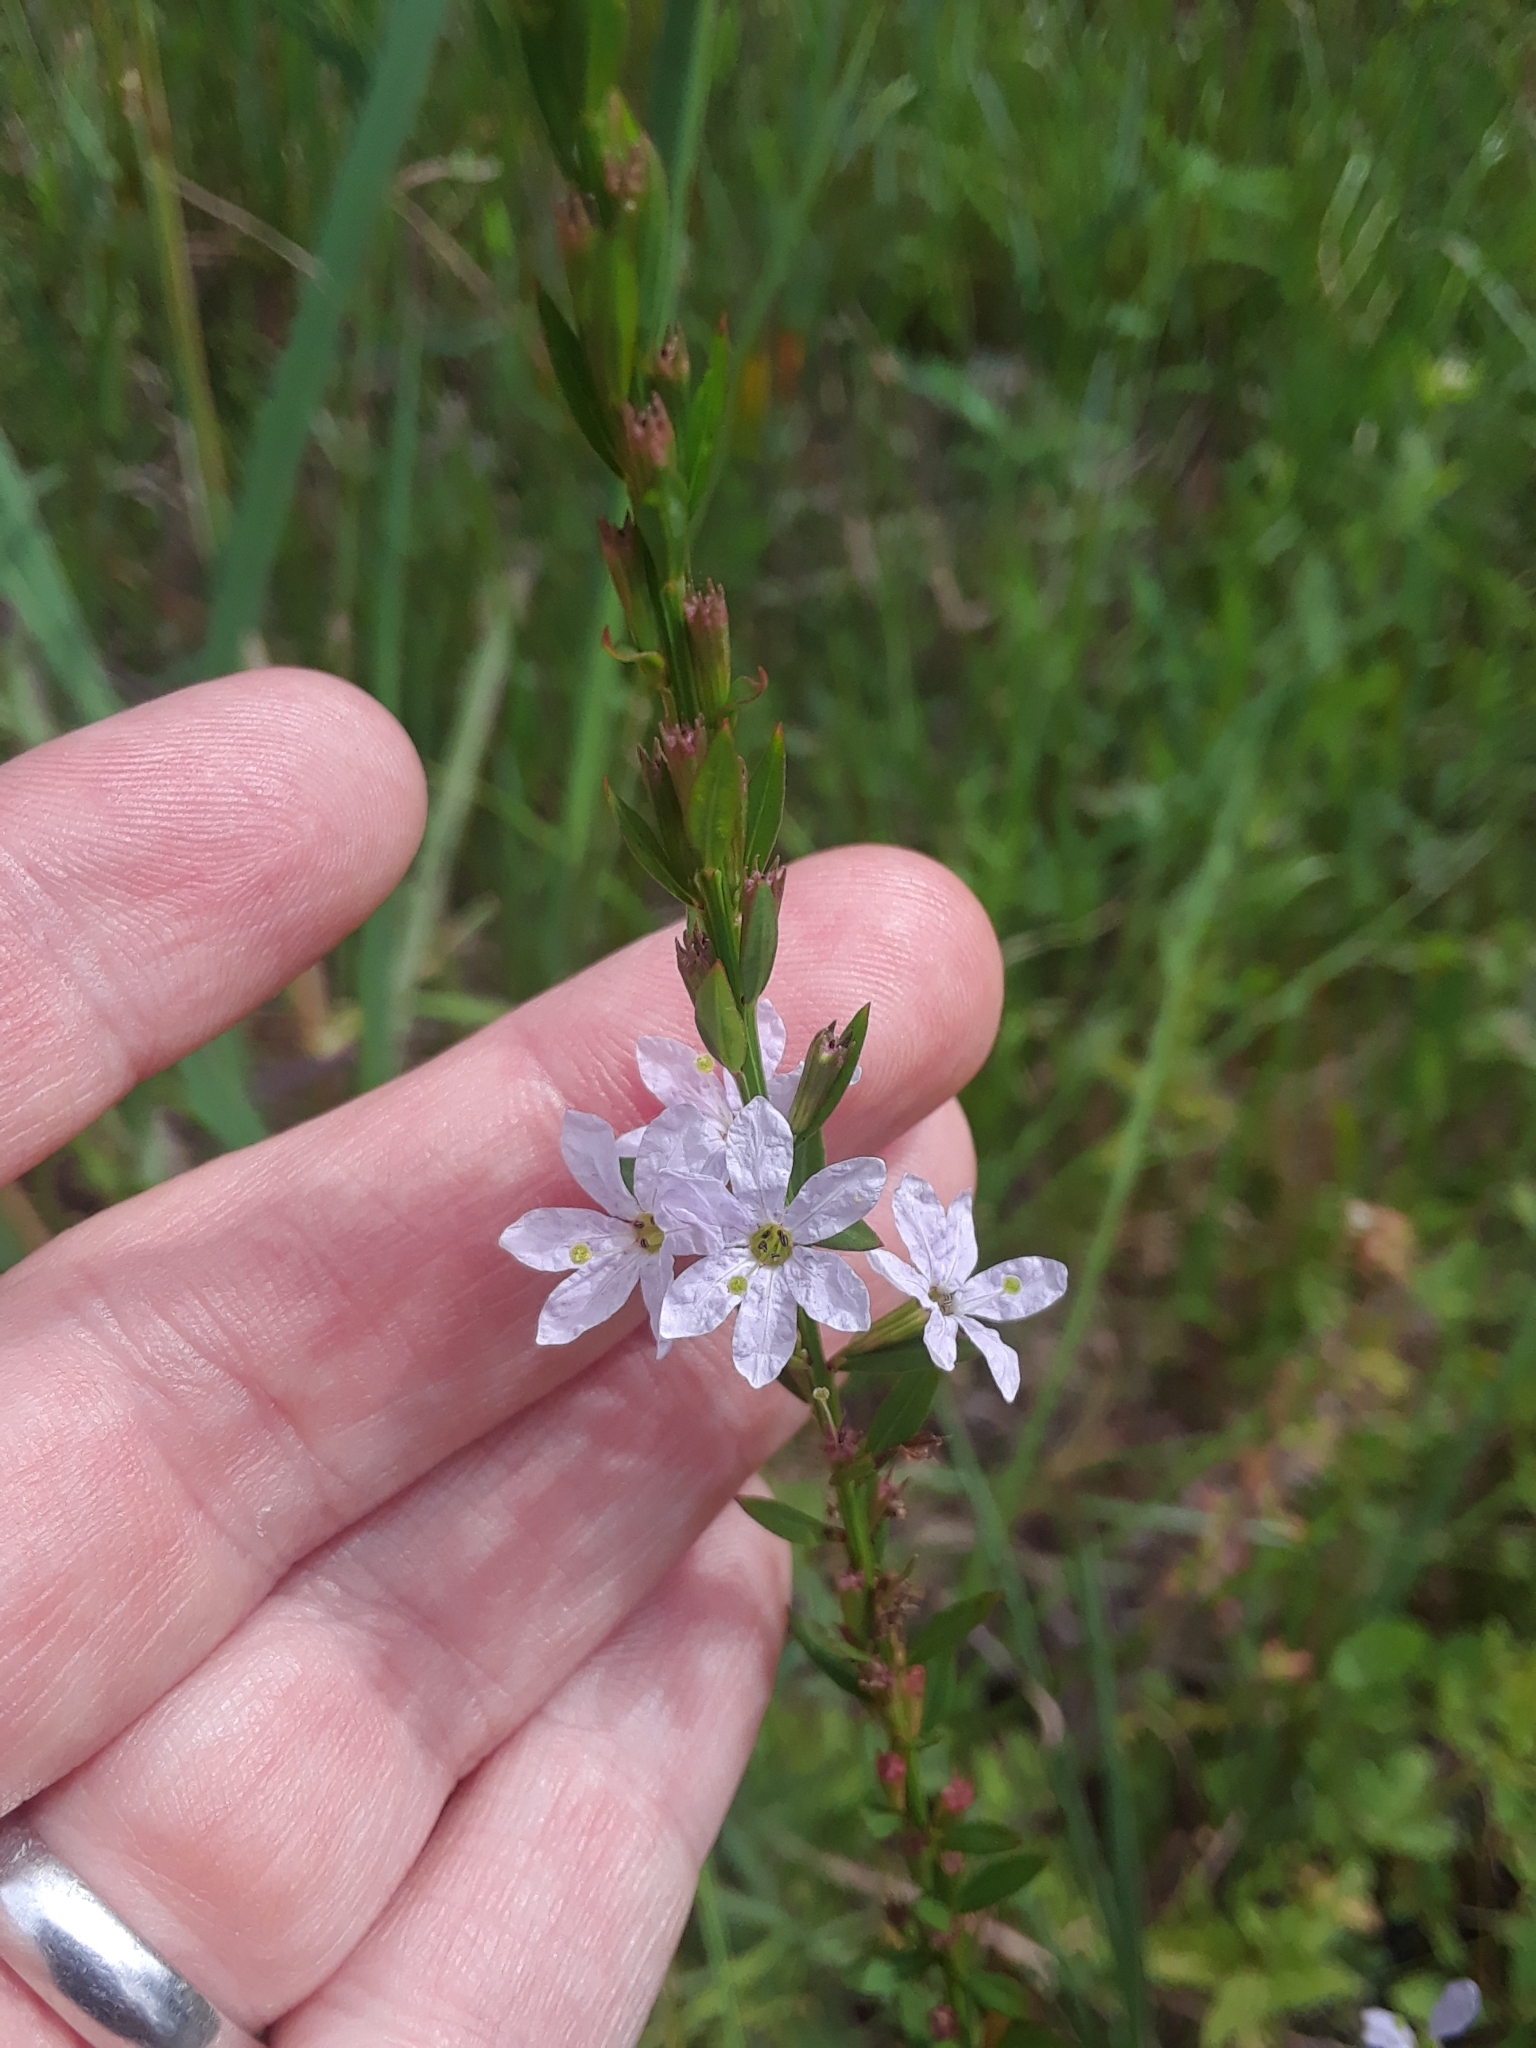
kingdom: Plantae
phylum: Tracheophyta
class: Magnoliopsida
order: Myrtales
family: Lythraceae
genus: Lythrum
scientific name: Lythrum alatum
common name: Winged loosestrife
